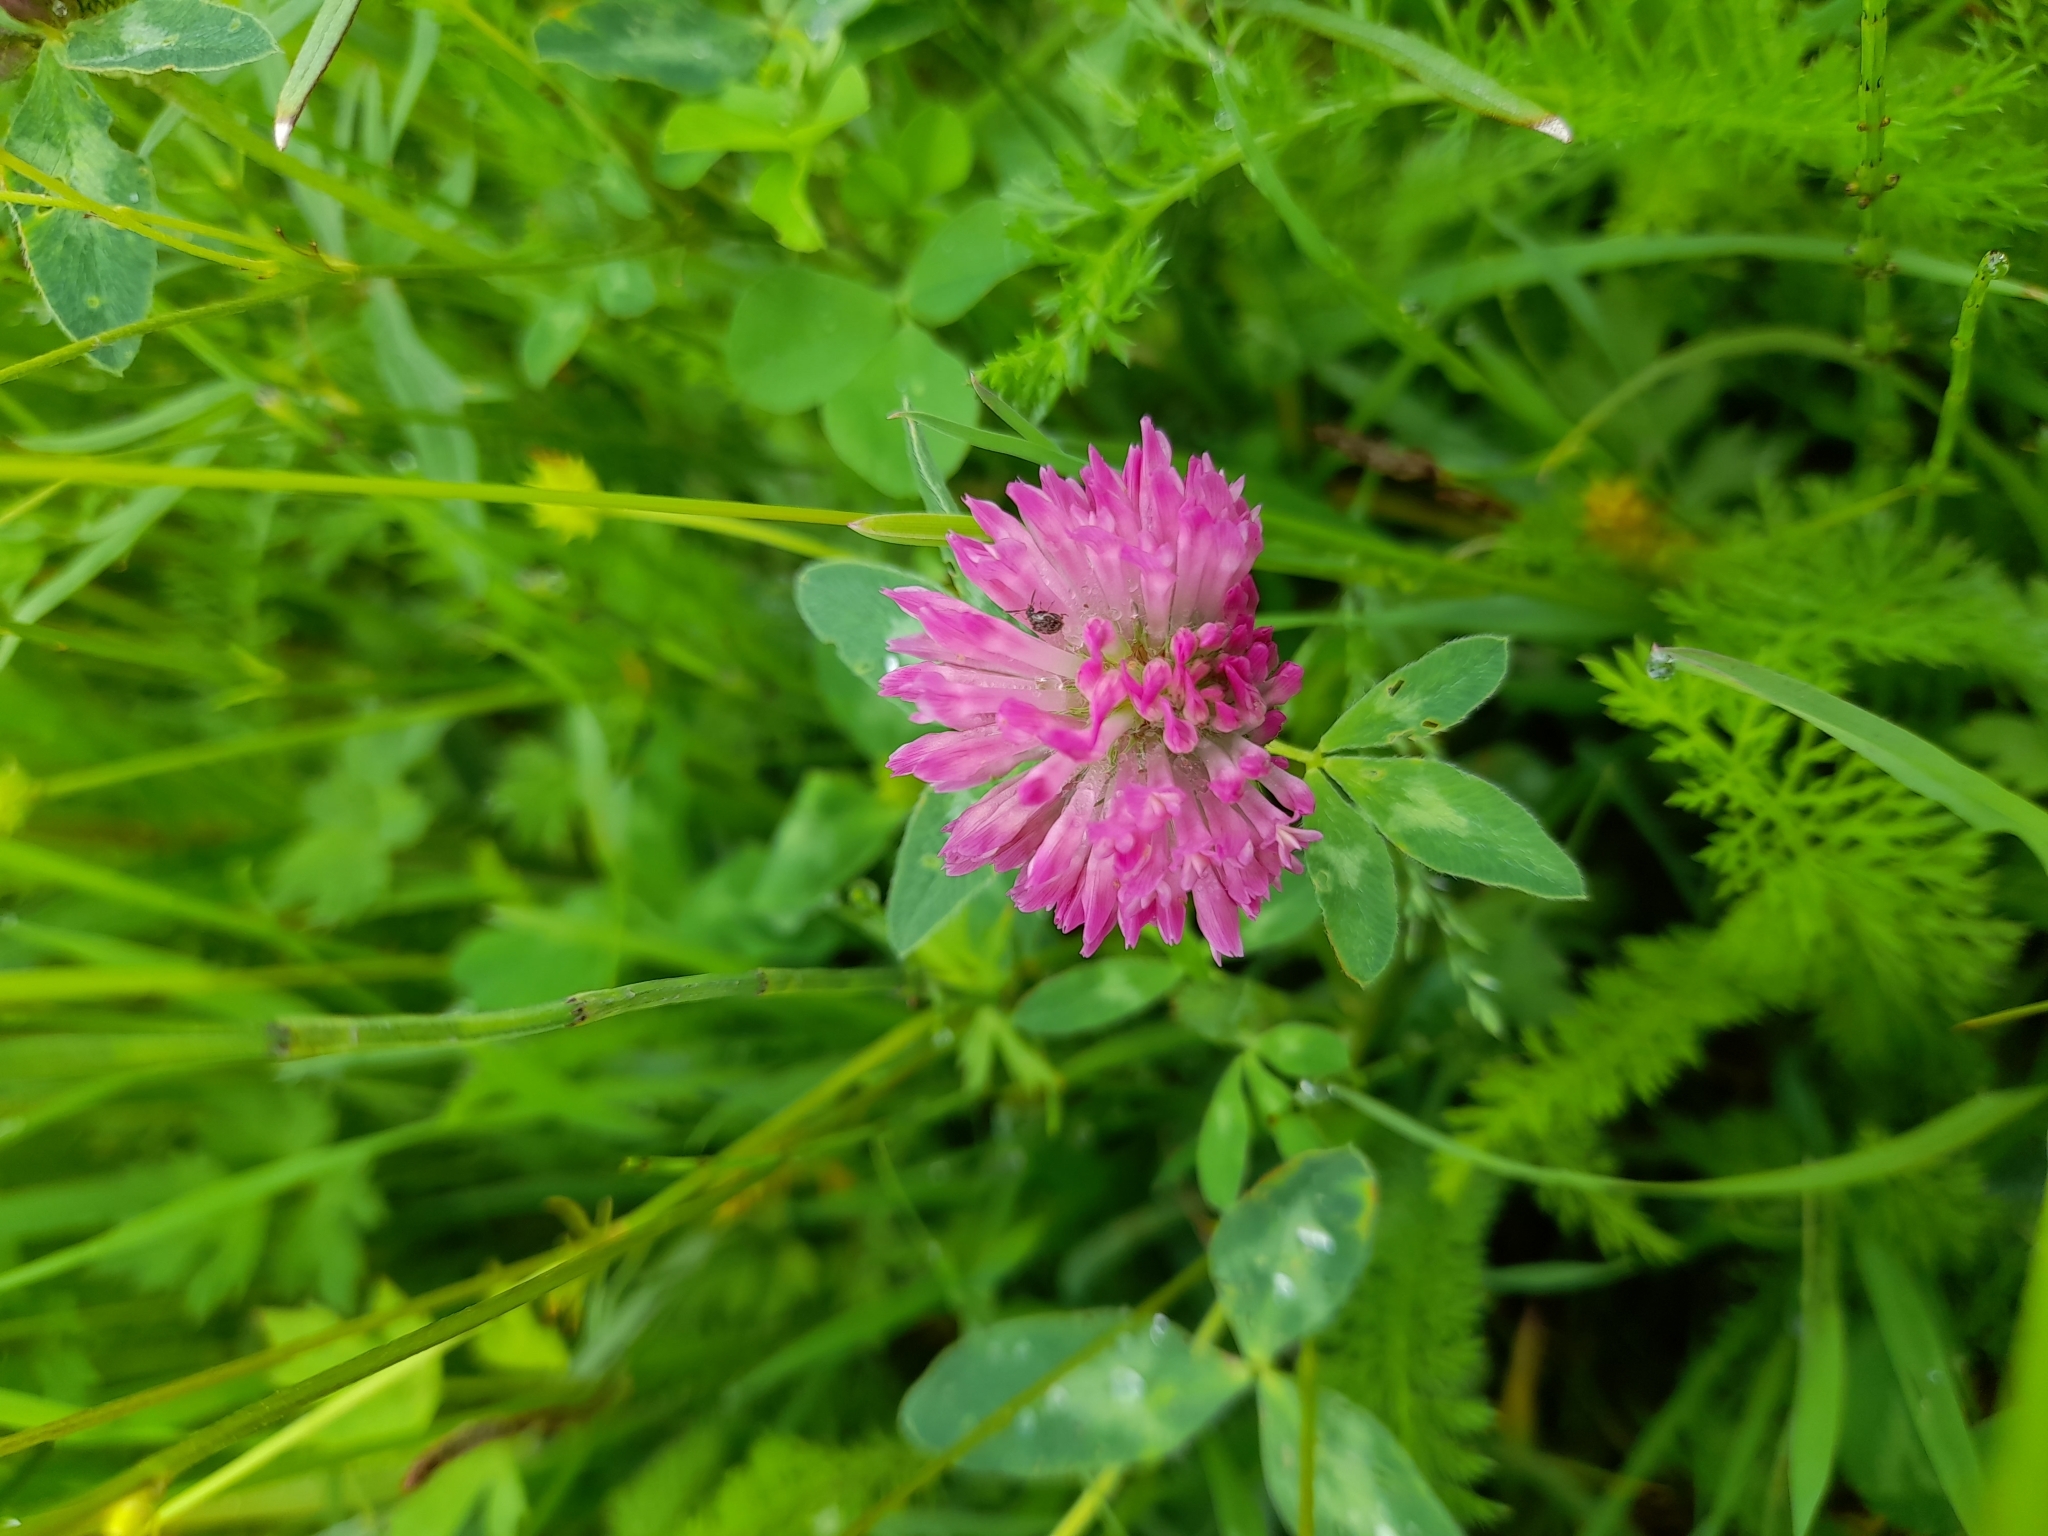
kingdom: Plantae
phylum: Tracheophyta
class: Magnoliopsida
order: Fabales
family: Fabaceae
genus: Trifolium
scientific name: Trifolium pratense
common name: Red clover
